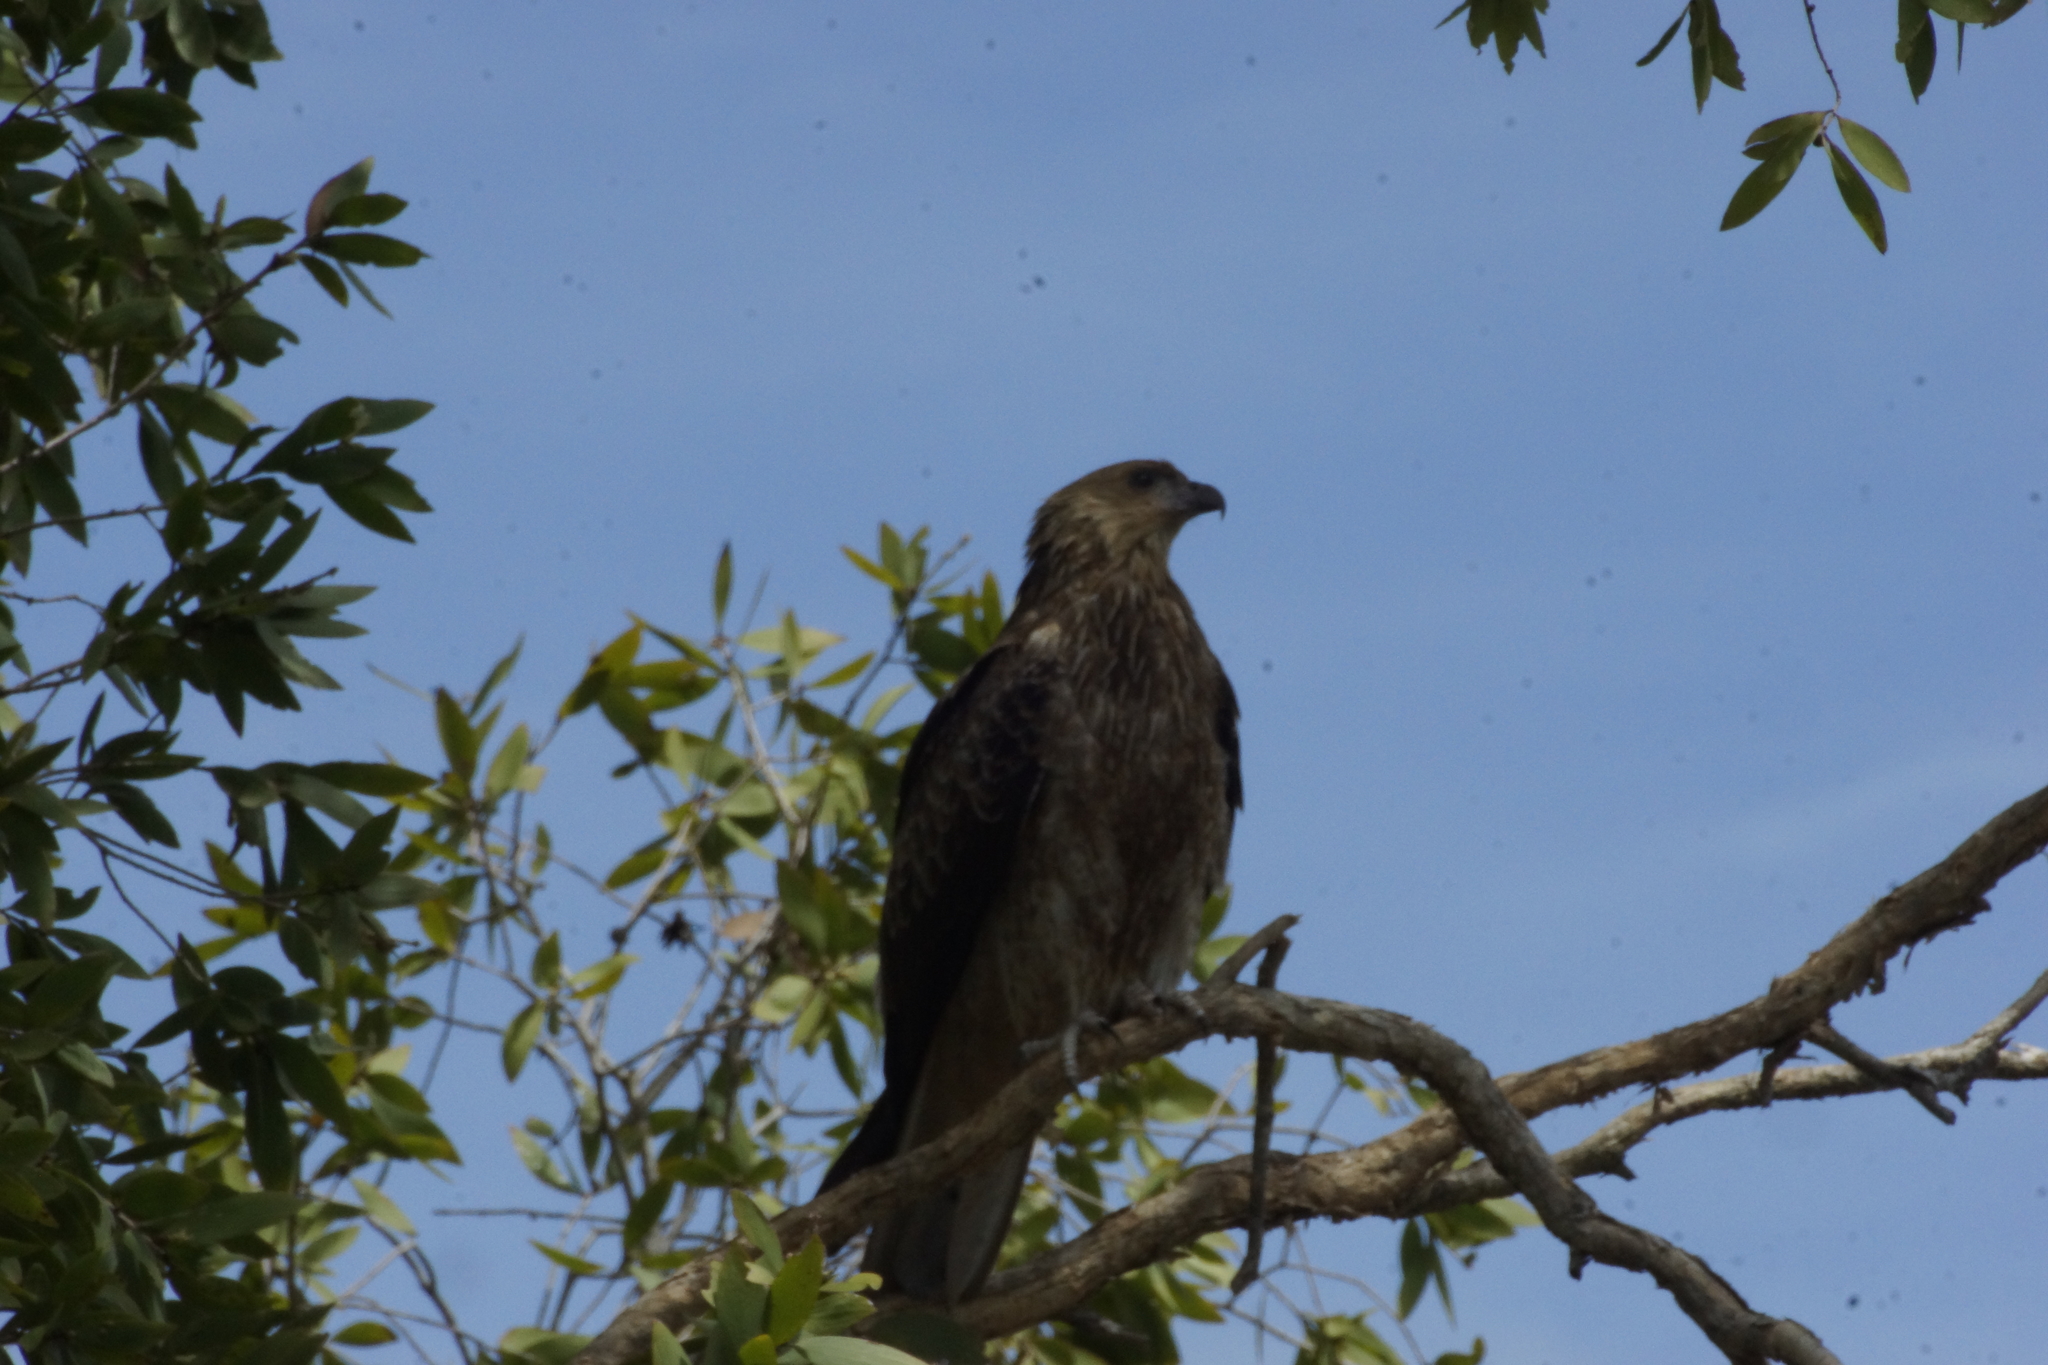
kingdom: Animalia
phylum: Chordata
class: Aves
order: Accipitriformes
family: Accipitridae
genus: Haliastur
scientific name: Haliastur sphenurus
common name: Whistling kite
